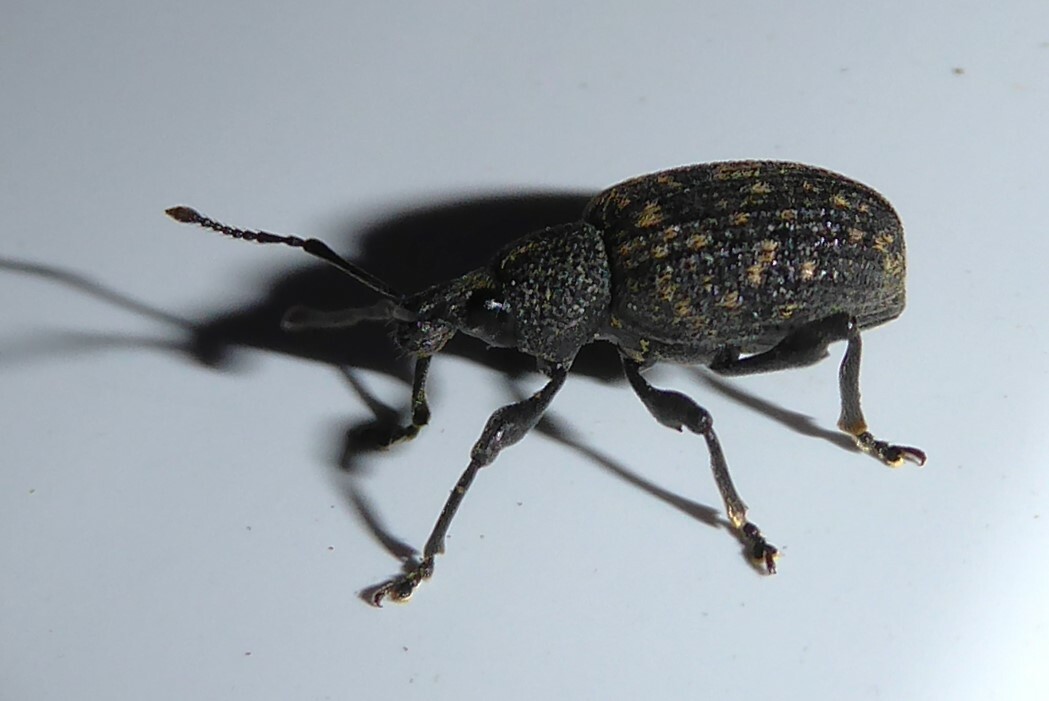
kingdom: Animalia
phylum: Arthropoda
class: Insecta
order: Coleoptera
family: Curculionidae
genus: Otiorhynchus
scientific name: Otiorhynchus sulcatus
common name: Black vine weevil
